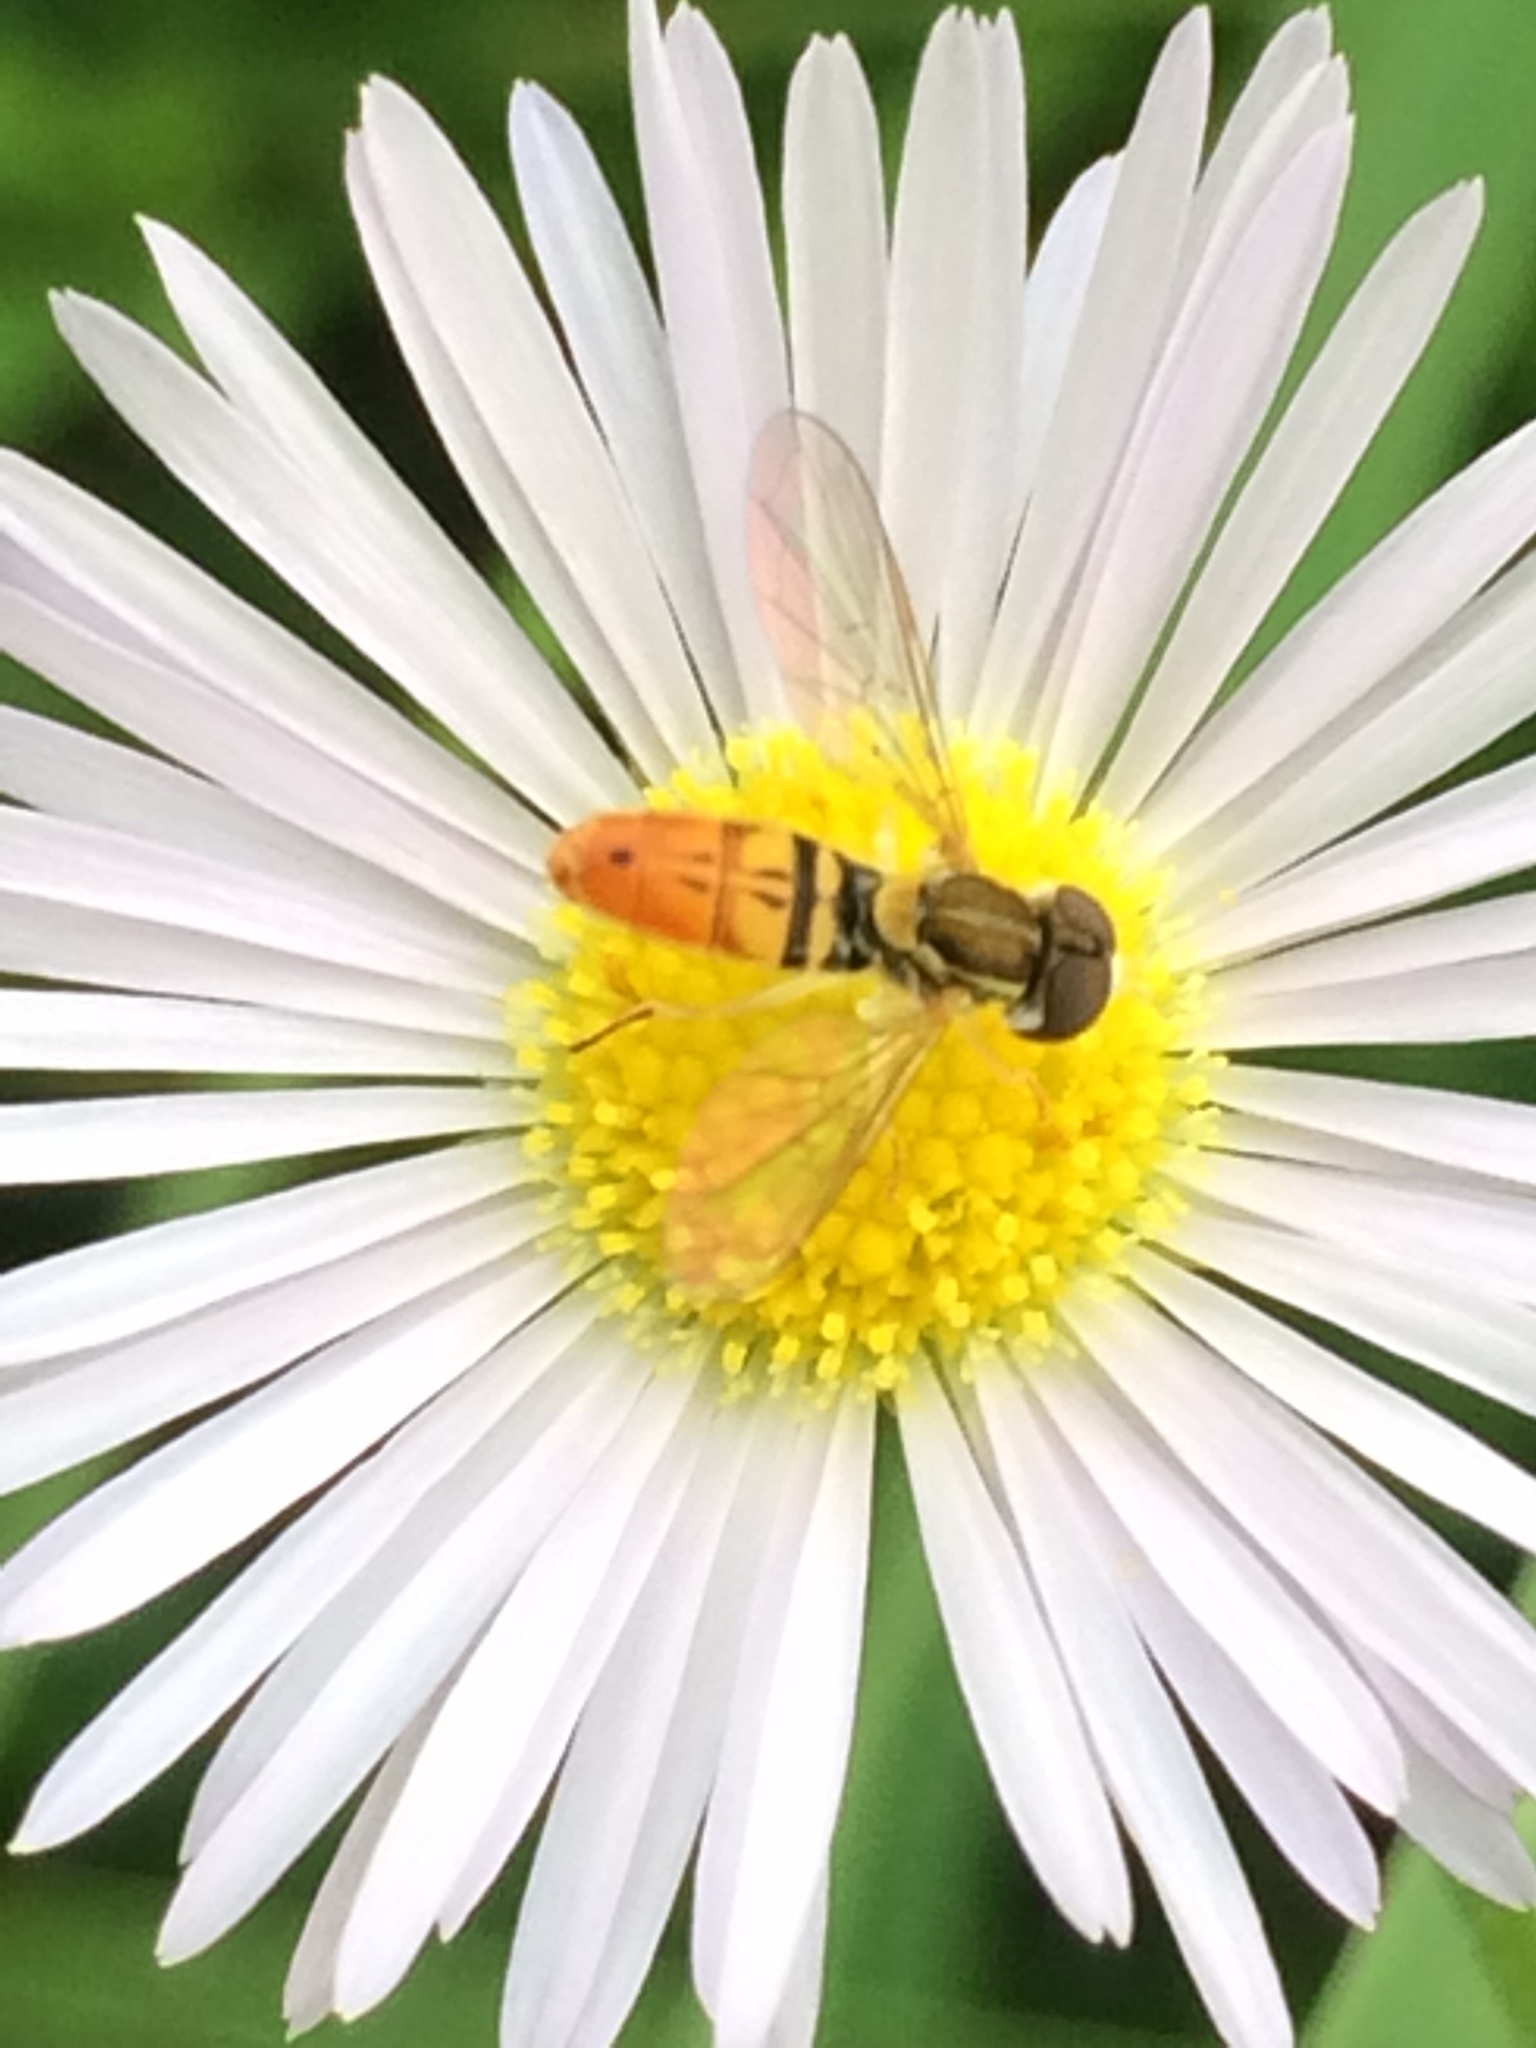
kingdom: Animalia
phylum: Arthropoda
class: Insecta
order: Diptera
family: Syrphidae
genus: Toxomerus
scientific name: Toxomerus marginatus
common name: Syrphid fly
